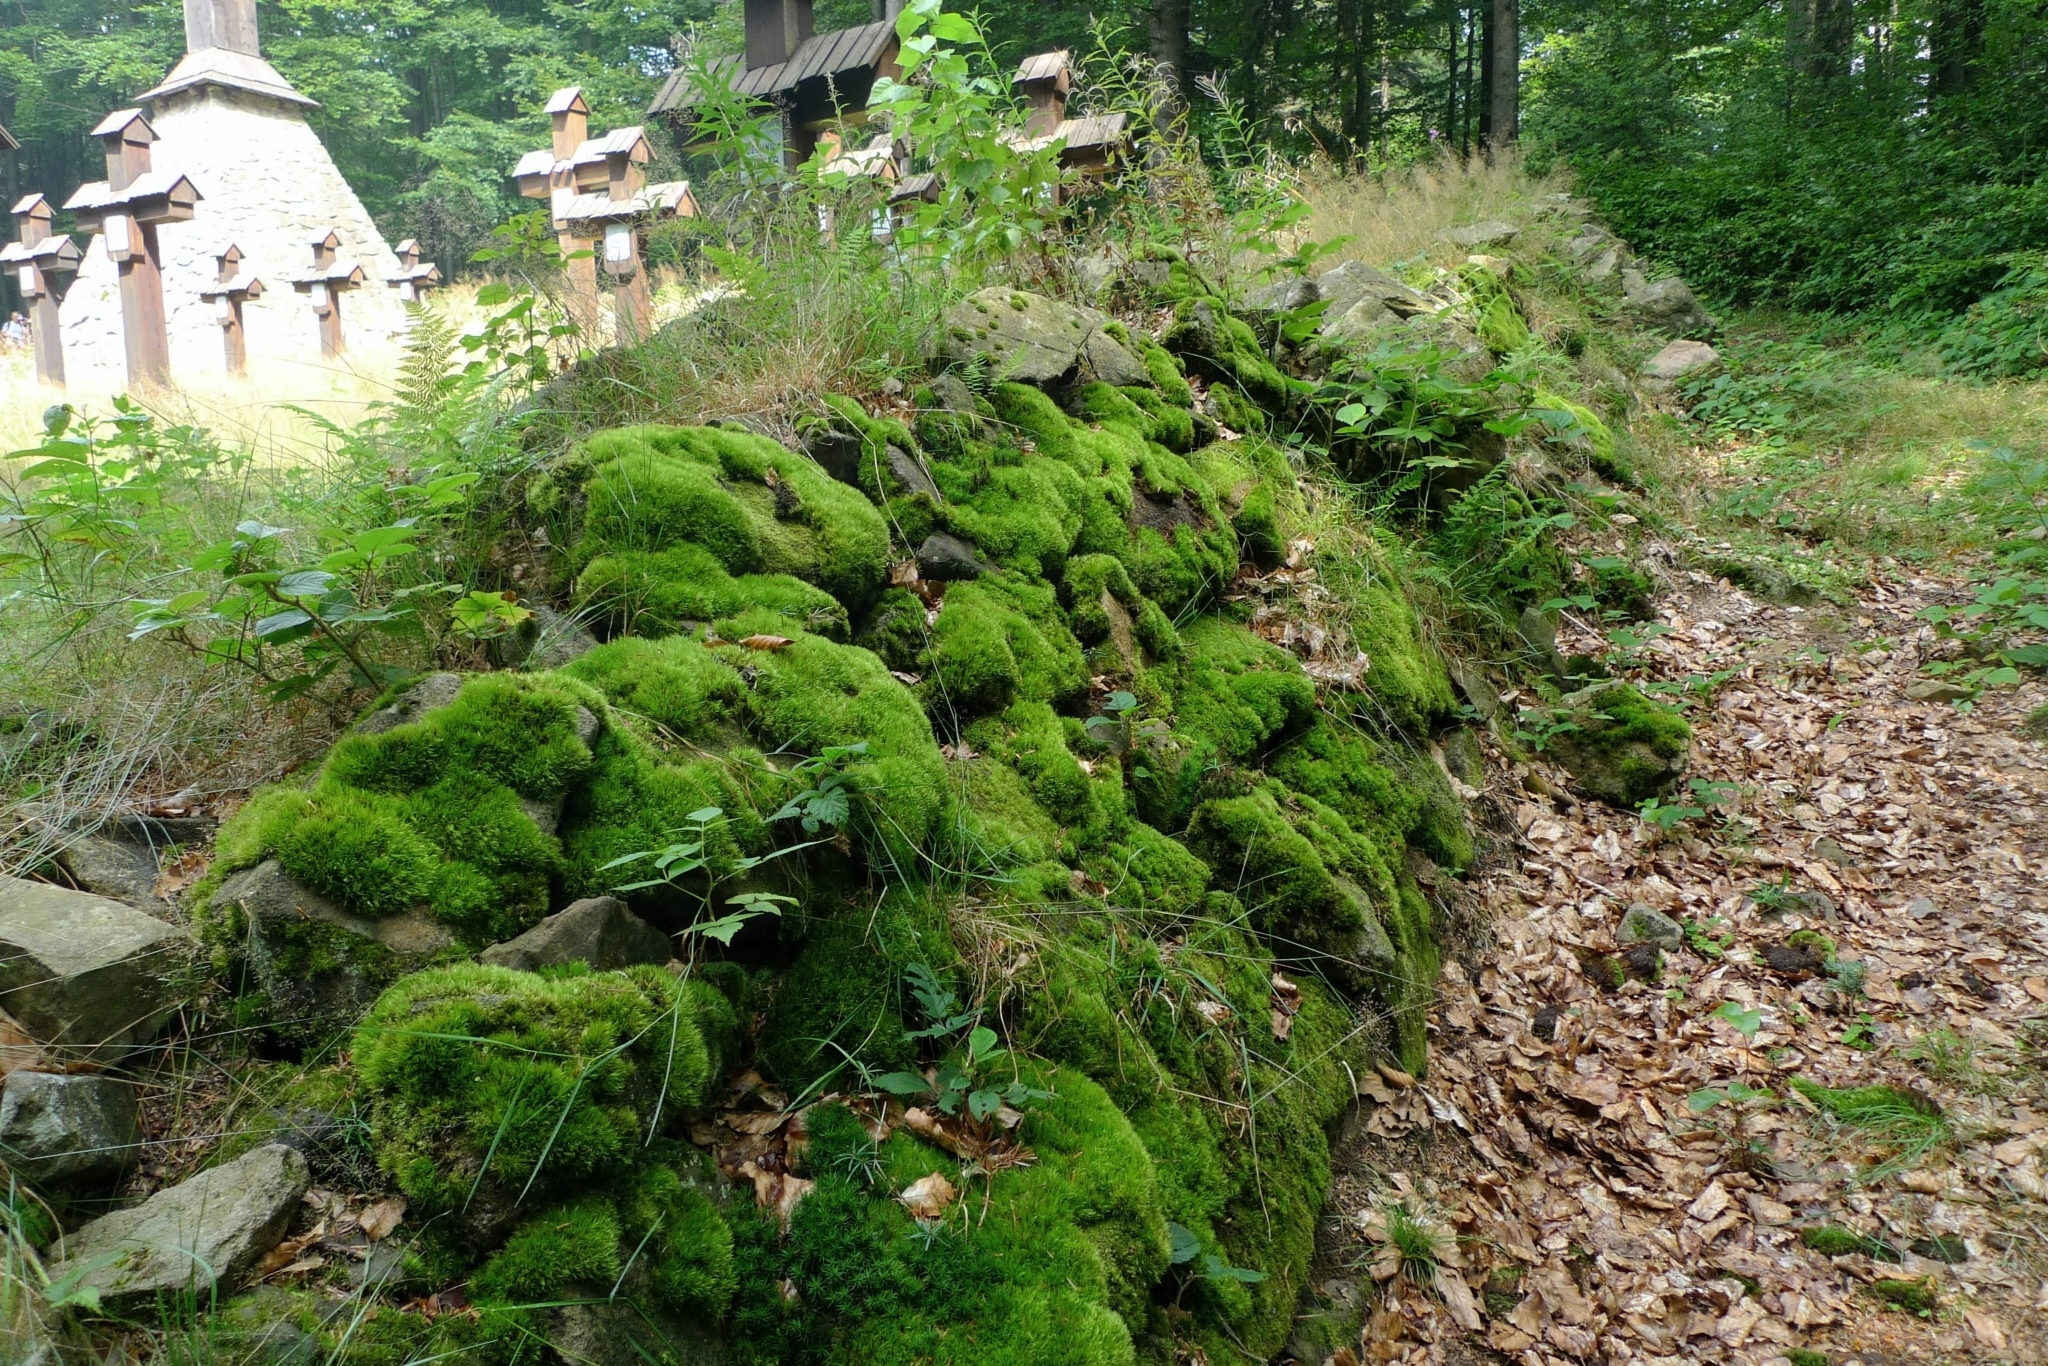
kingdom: Plantae
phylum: Bryophyta
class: Bryopsida
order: Bryales
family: Mniaceae
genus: Rhizomnium
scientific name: Rhizomnium punctatum
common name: Dotted leafy moss
